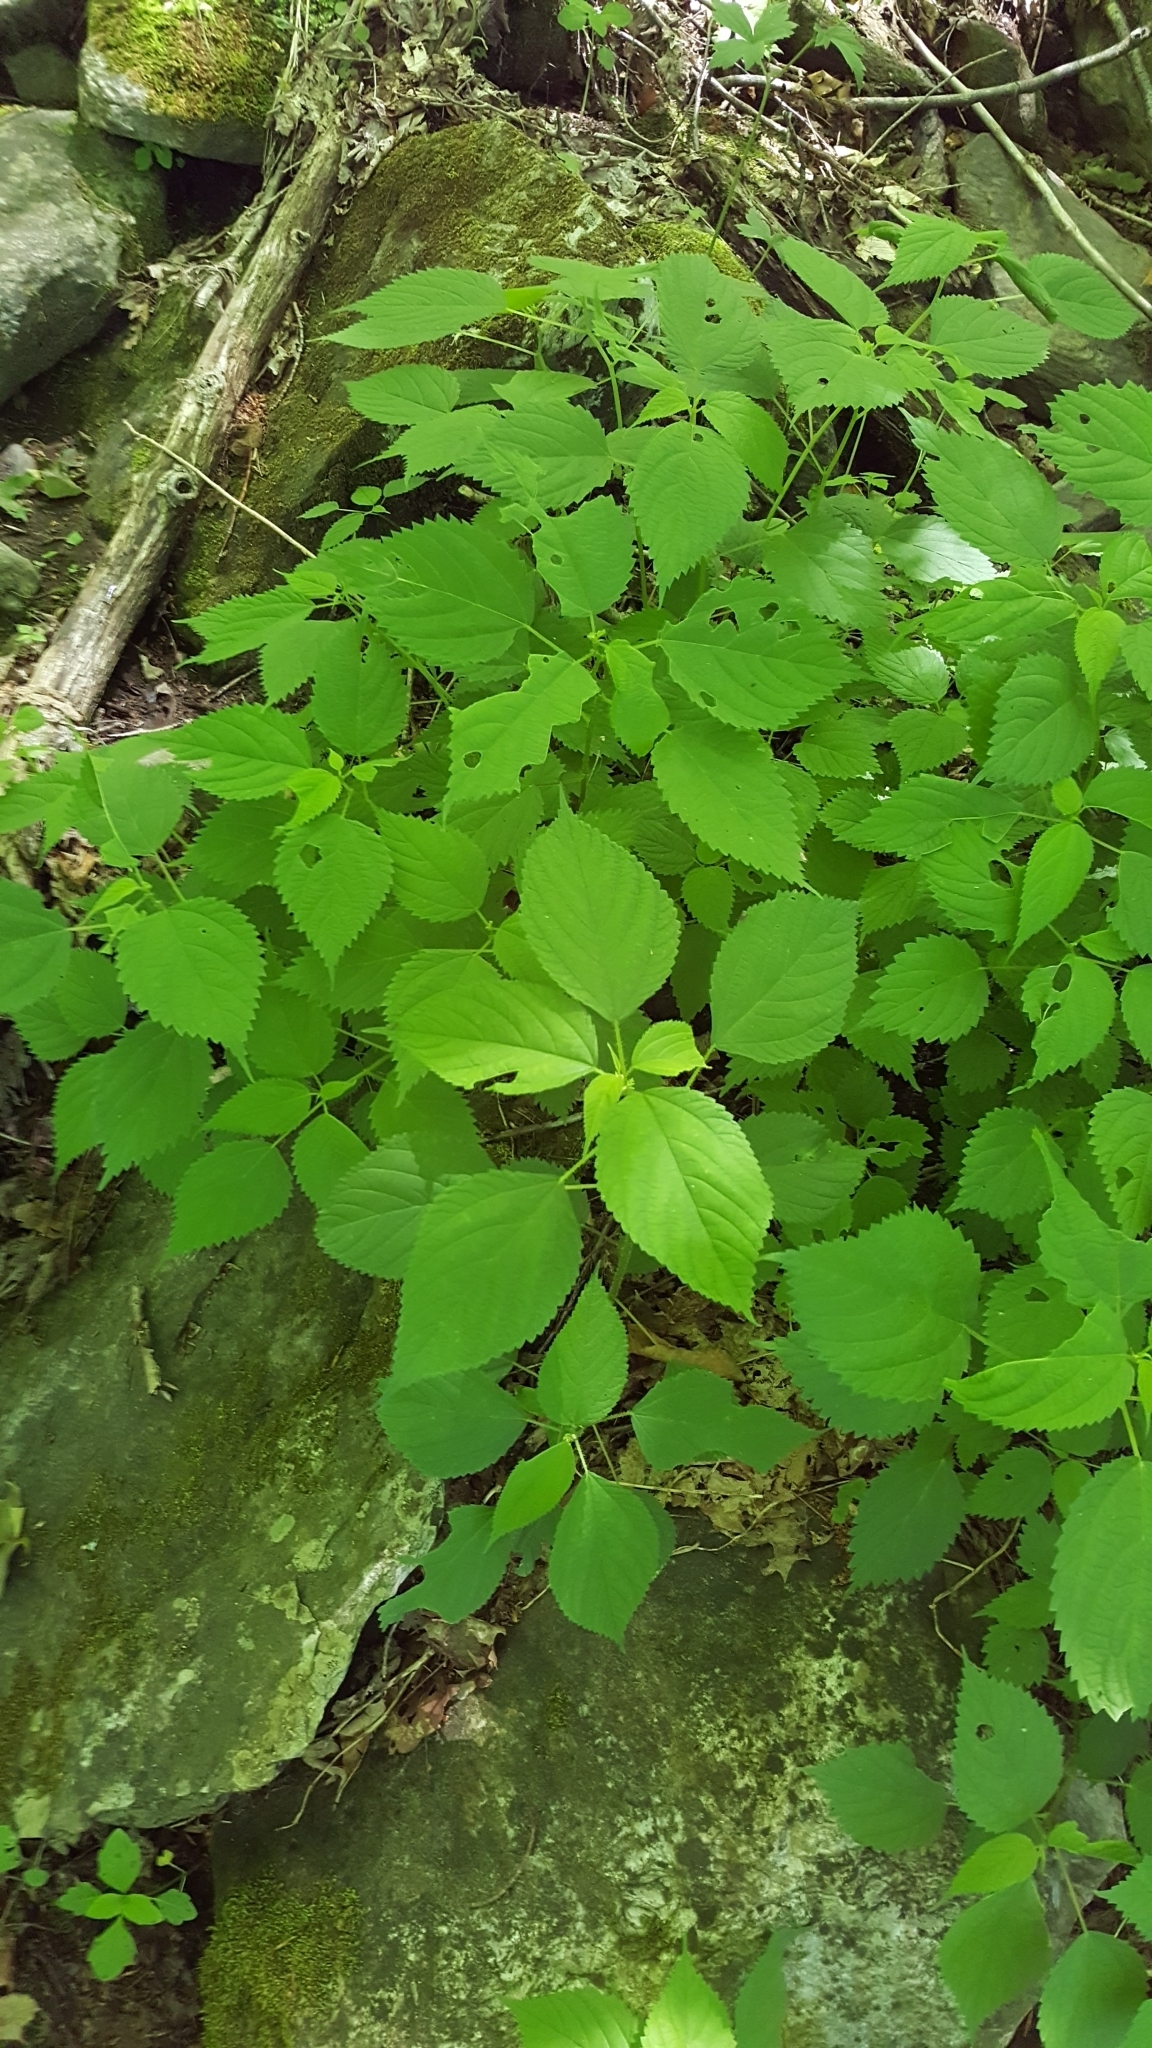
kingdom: Plantae
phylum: Tracheophyta
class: Magnoliopsida
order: Rosales
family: Urticaceae
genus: Laportea
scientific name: Laportea canadensis
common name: Canada nettle
